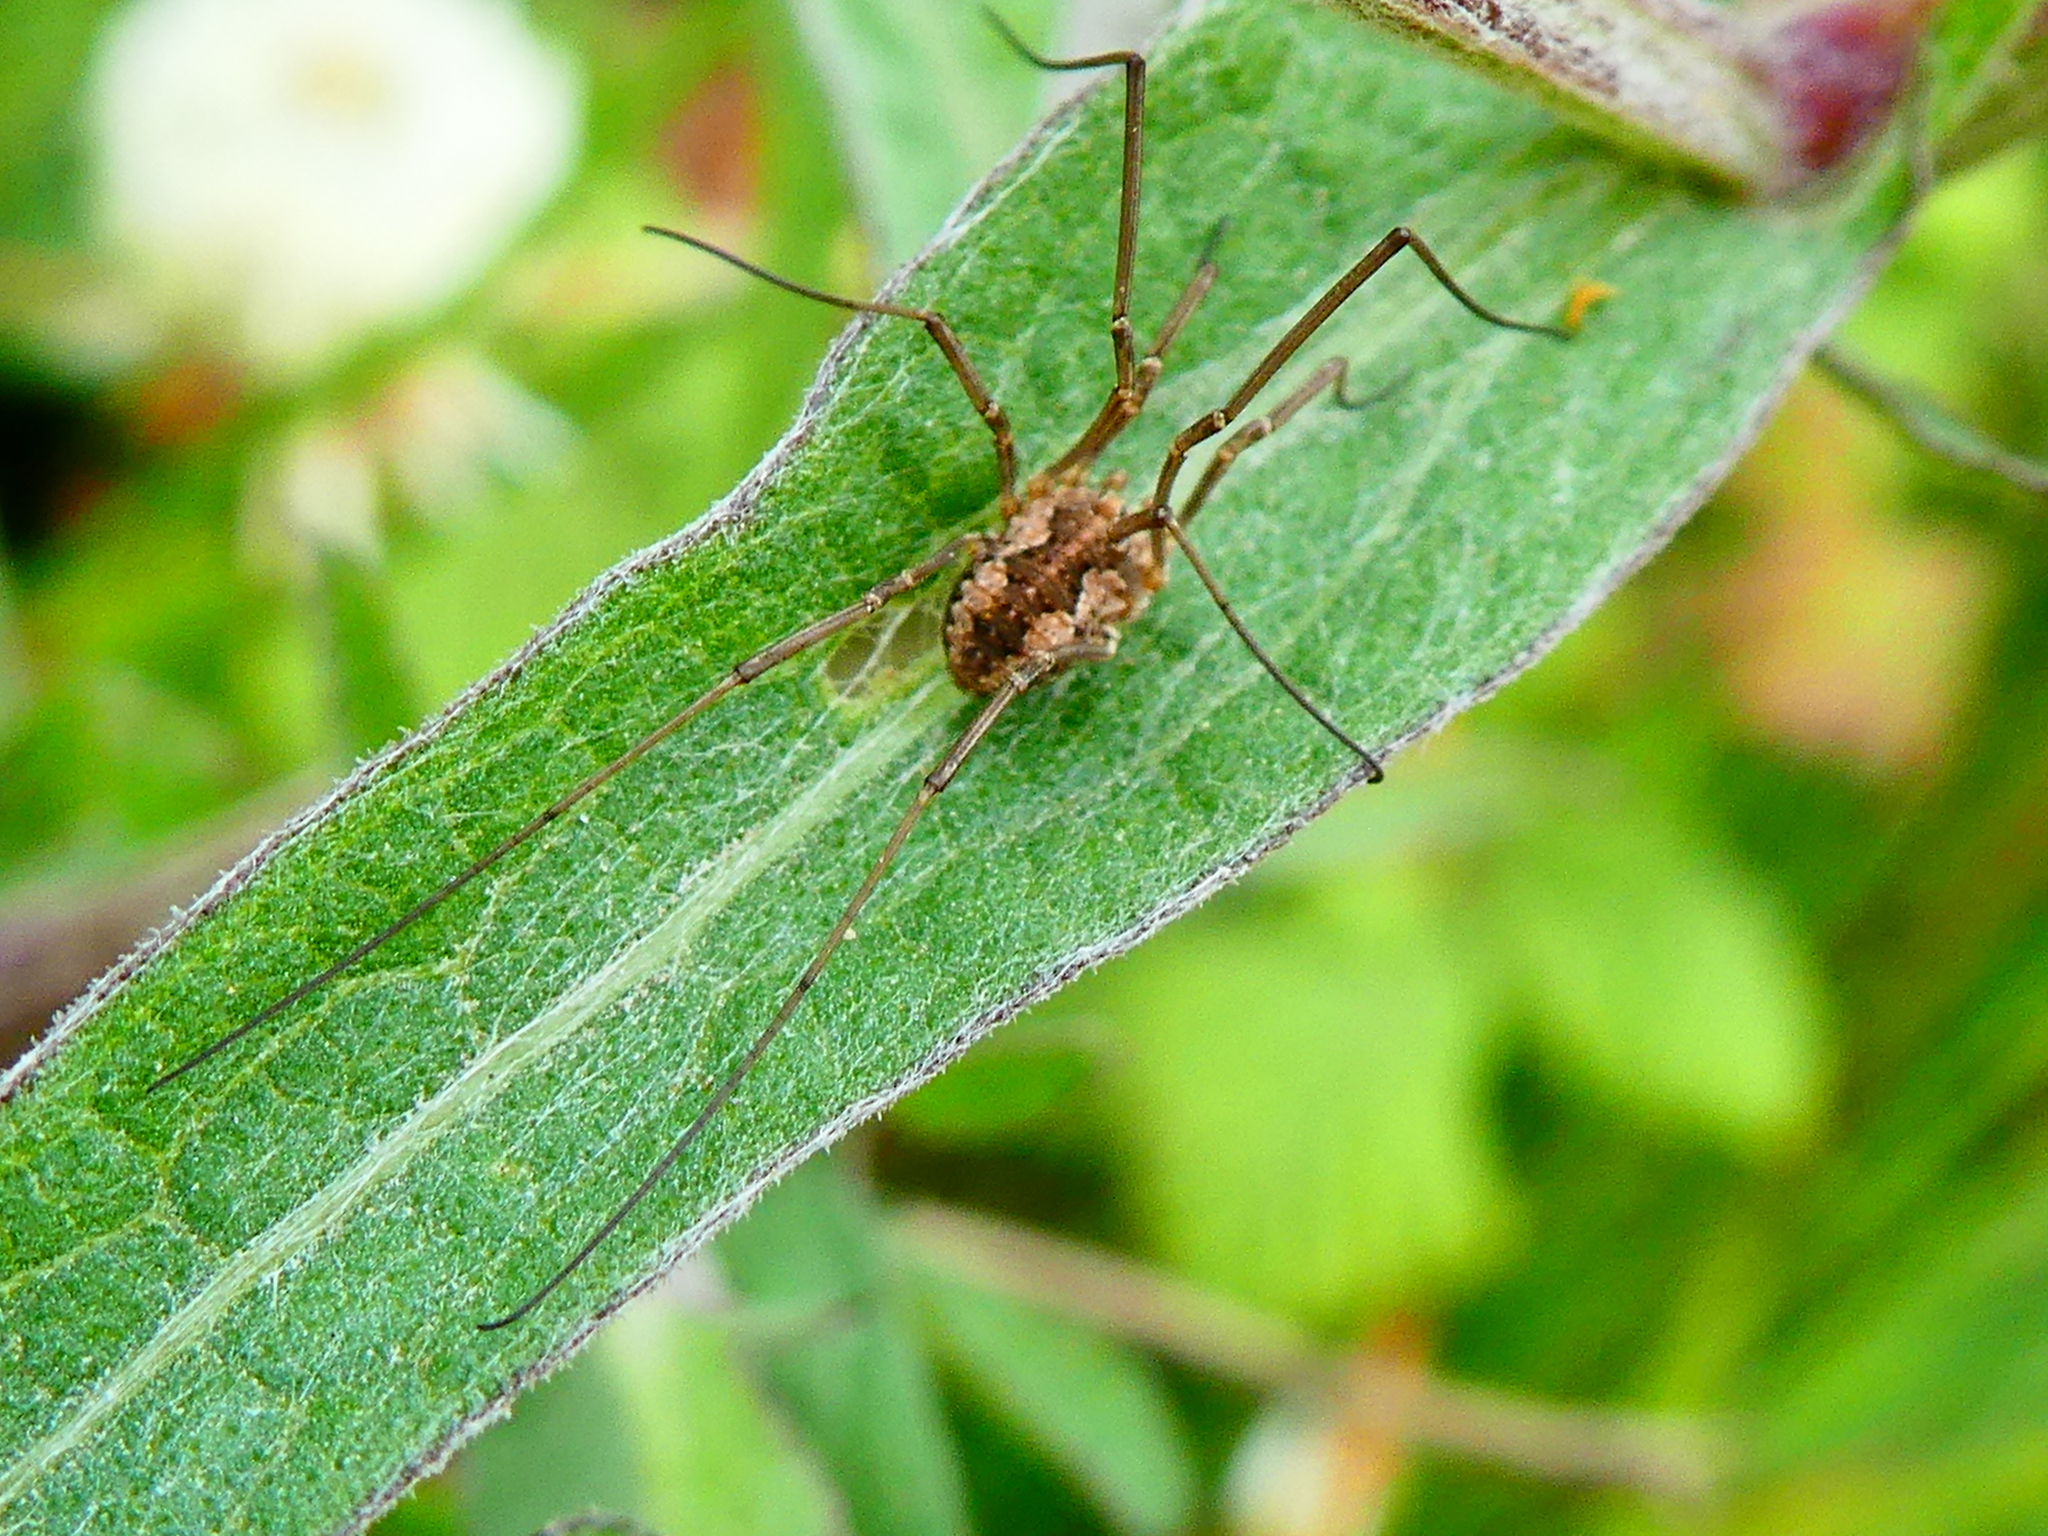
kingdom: Animalia
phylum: Arthropoda
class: Arachnida
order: Opiliones
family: Phalangiidae
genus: Phalangium
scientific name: Phalangium opilio
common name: Daddy longleg
